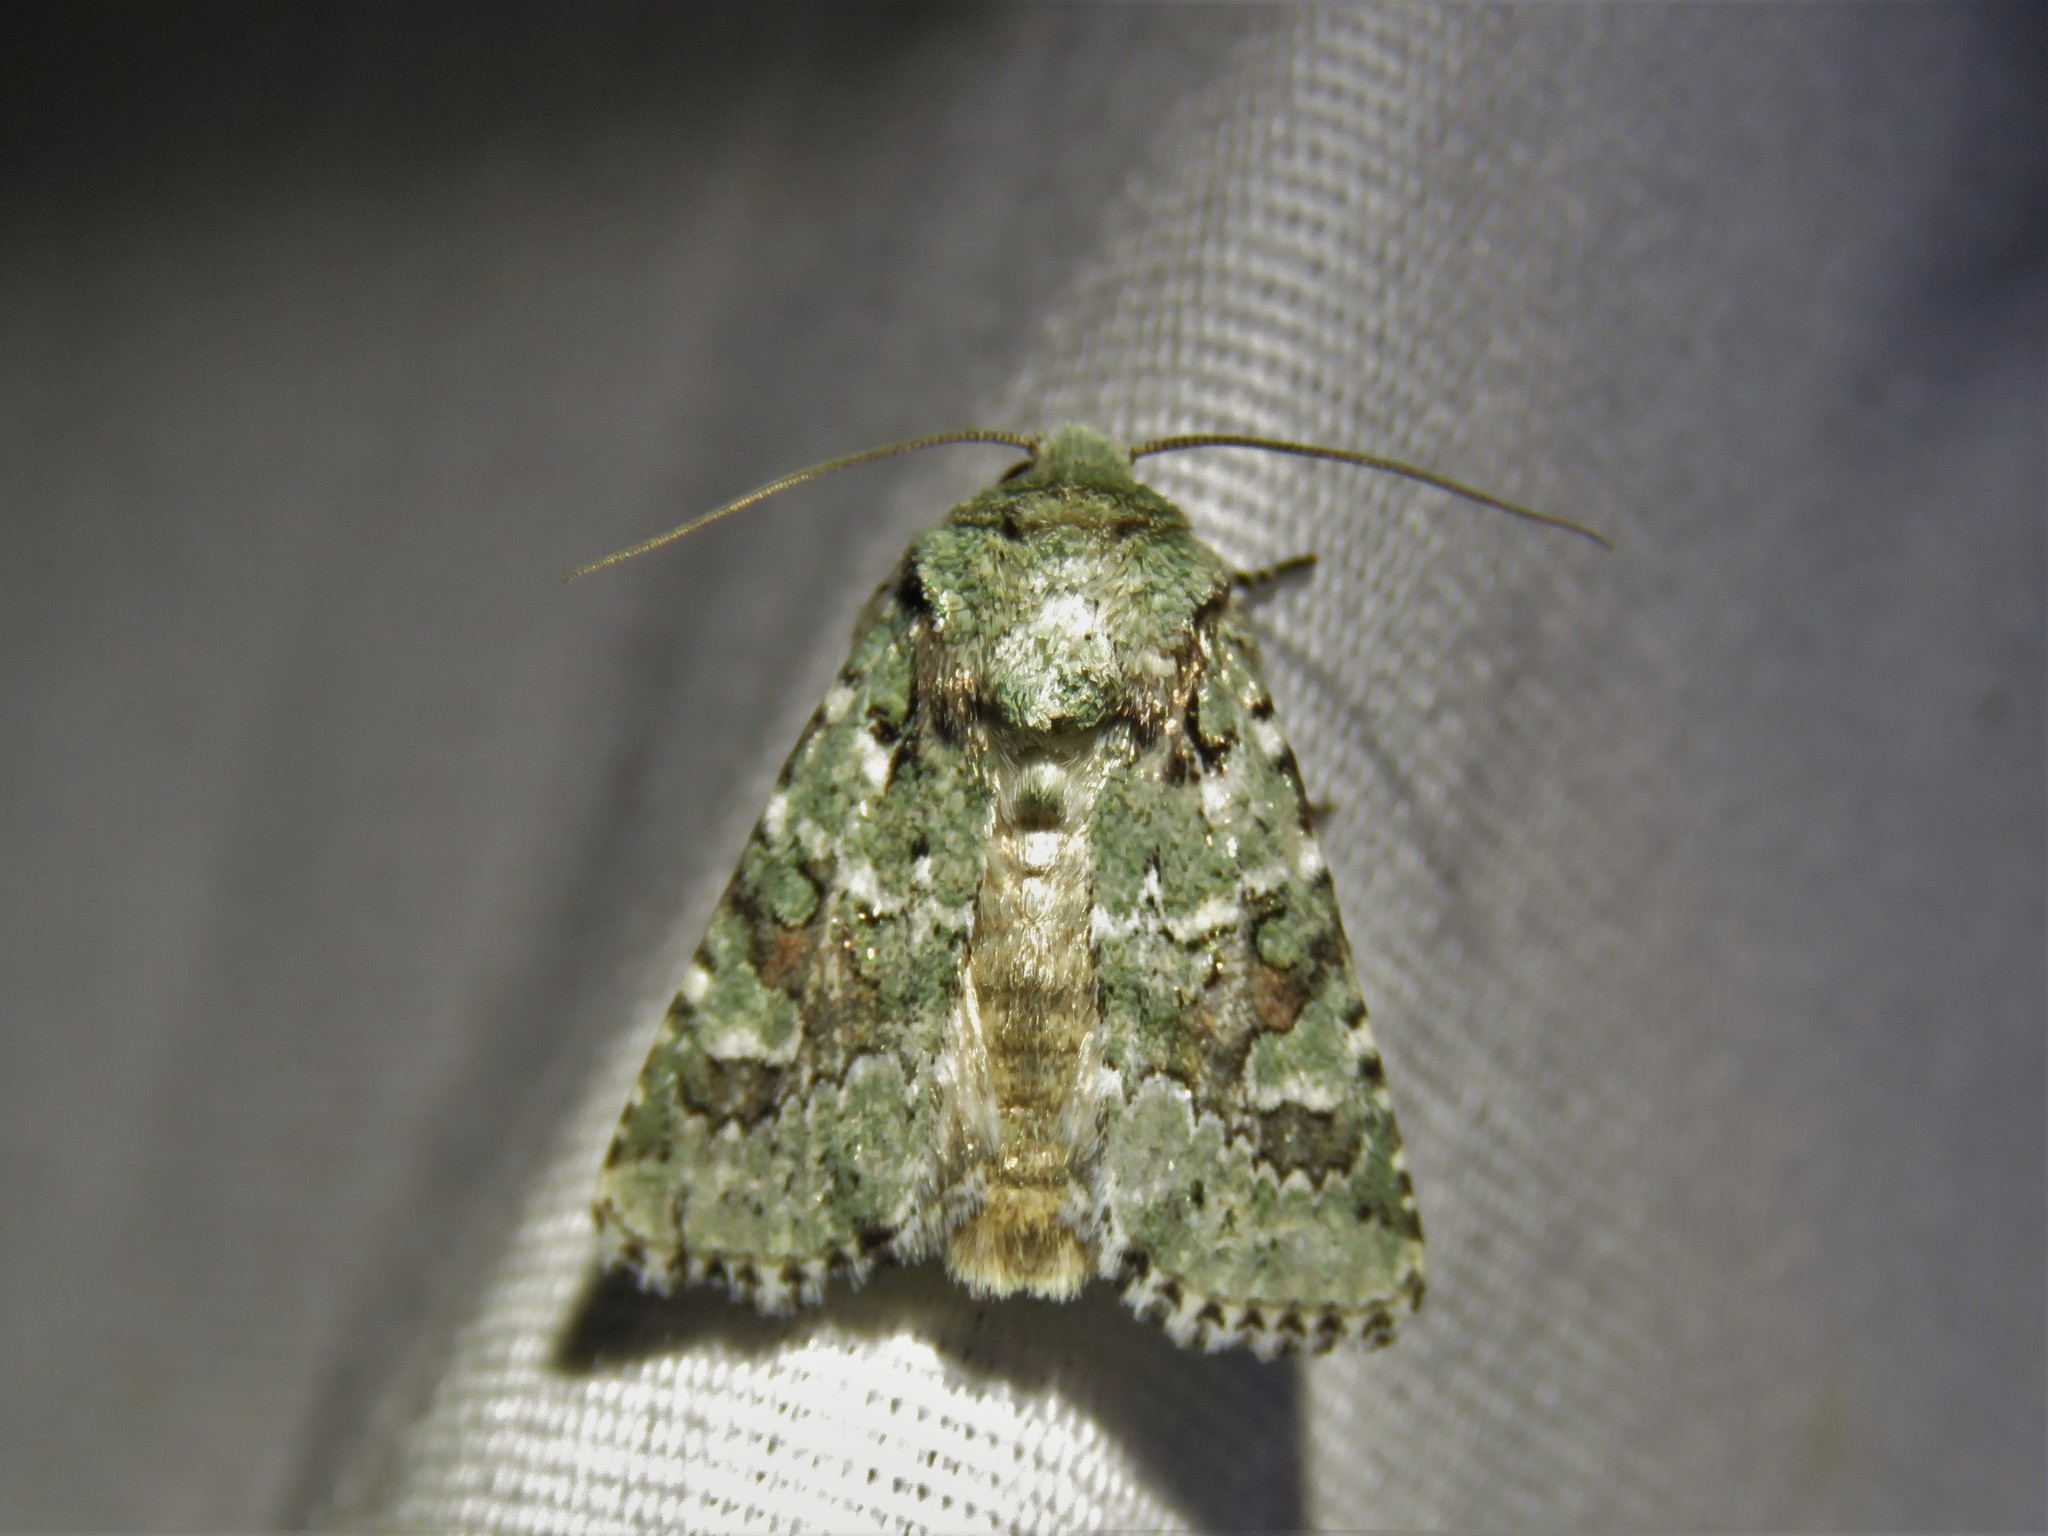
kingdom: Animalia
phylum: Arthropoda
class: Insecta
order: Lepidoptera
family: Noctuidae
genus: Lacinipolia
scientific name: Lacinipolia laudabilis
